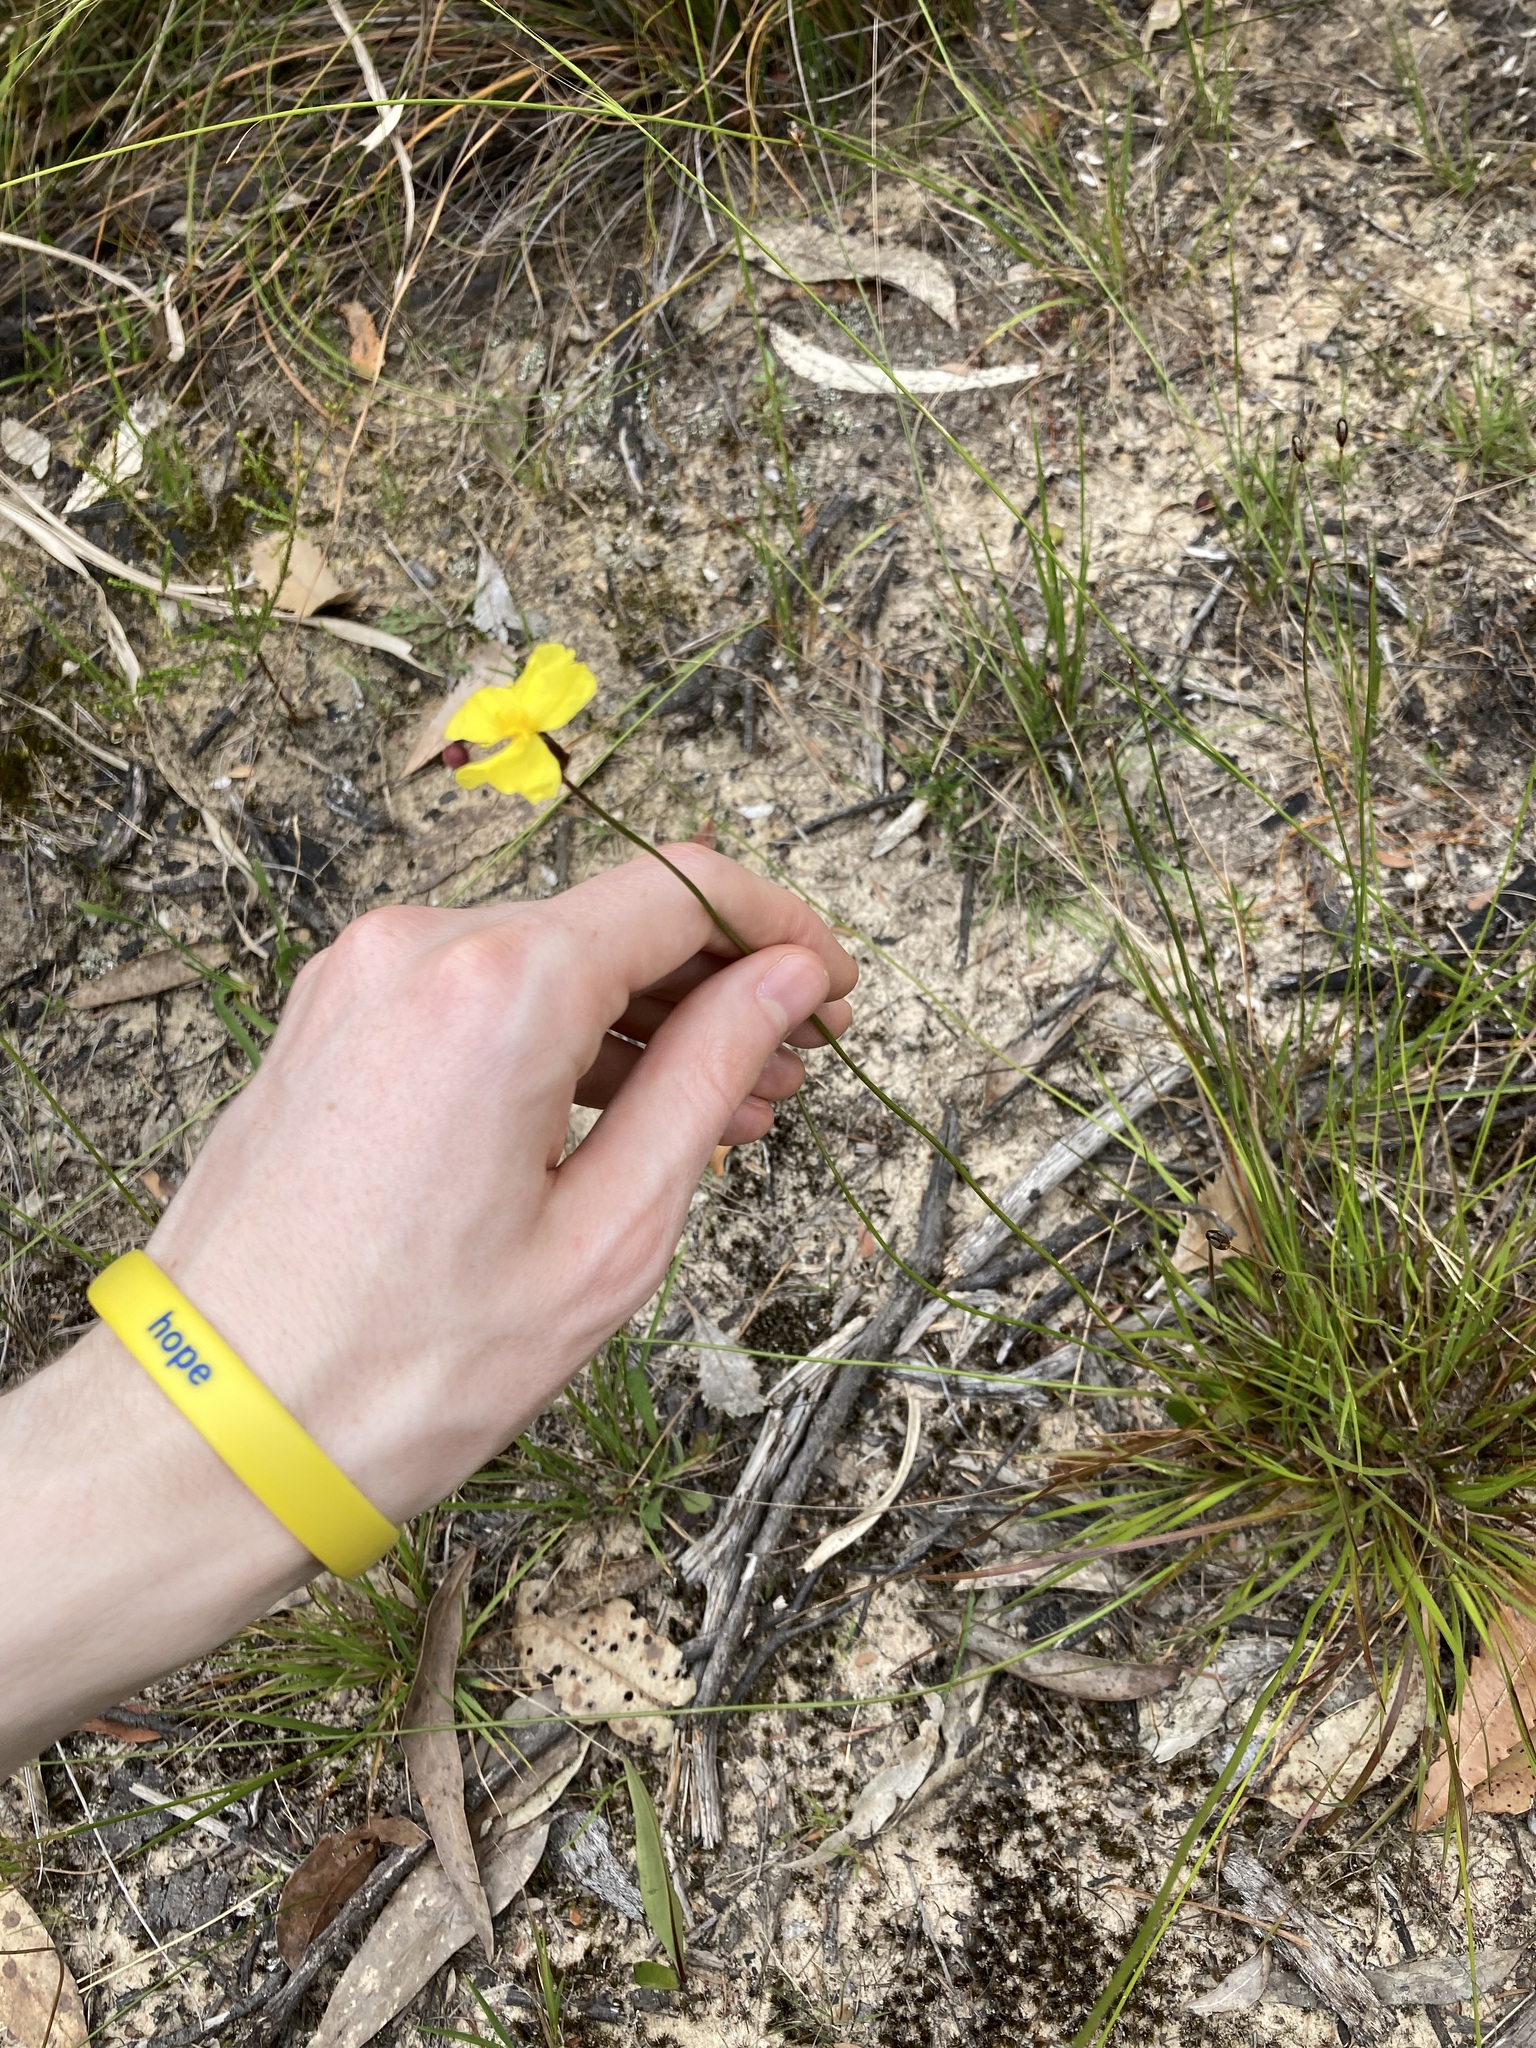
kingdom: Plantae
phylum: Tracheophyta
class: Liliopsida
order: Poales
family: Xyridaceae
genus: Xyris
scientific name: Xyris complanata
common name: Hawai'i yelloweyed grass
